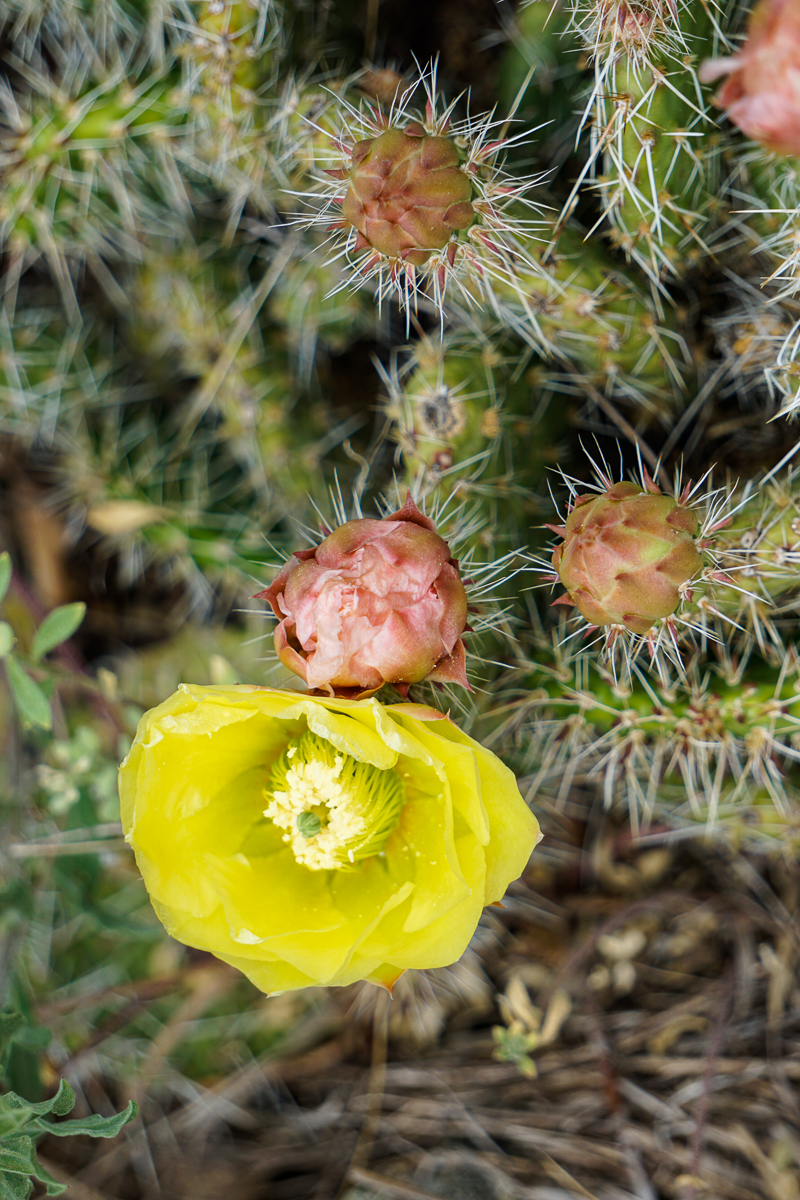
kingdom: Plantae
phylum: Tracheophyta
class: Magnoliopsida
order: Caryophyllales
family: Cactaceae
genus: Opuntia
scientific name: Opuntia polyacantha
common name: Plains prickly-pear
